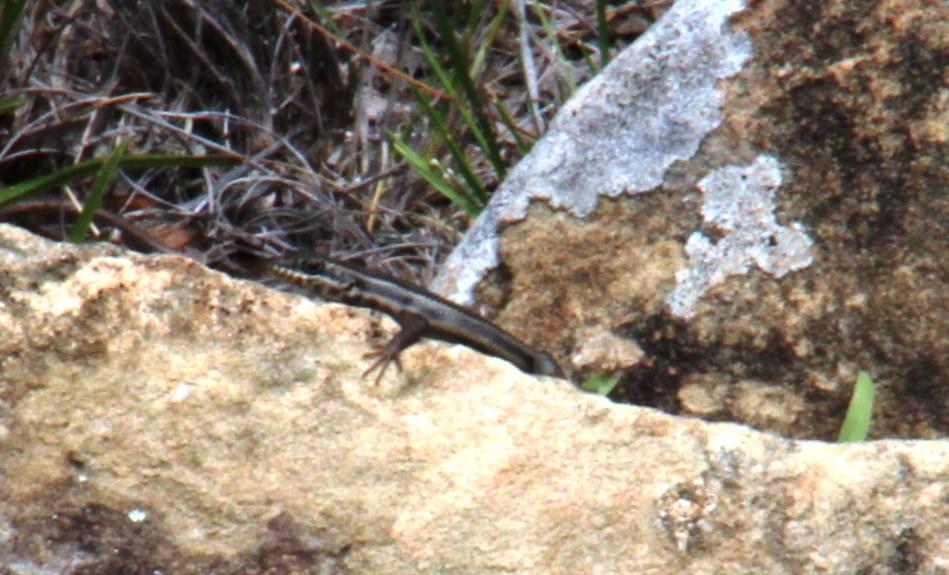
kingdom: Animalia
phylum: Chordata
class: Squamata
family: Scincidae
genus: Trachylepis
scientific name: Trachylepis sulcata
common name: Western rock skink
